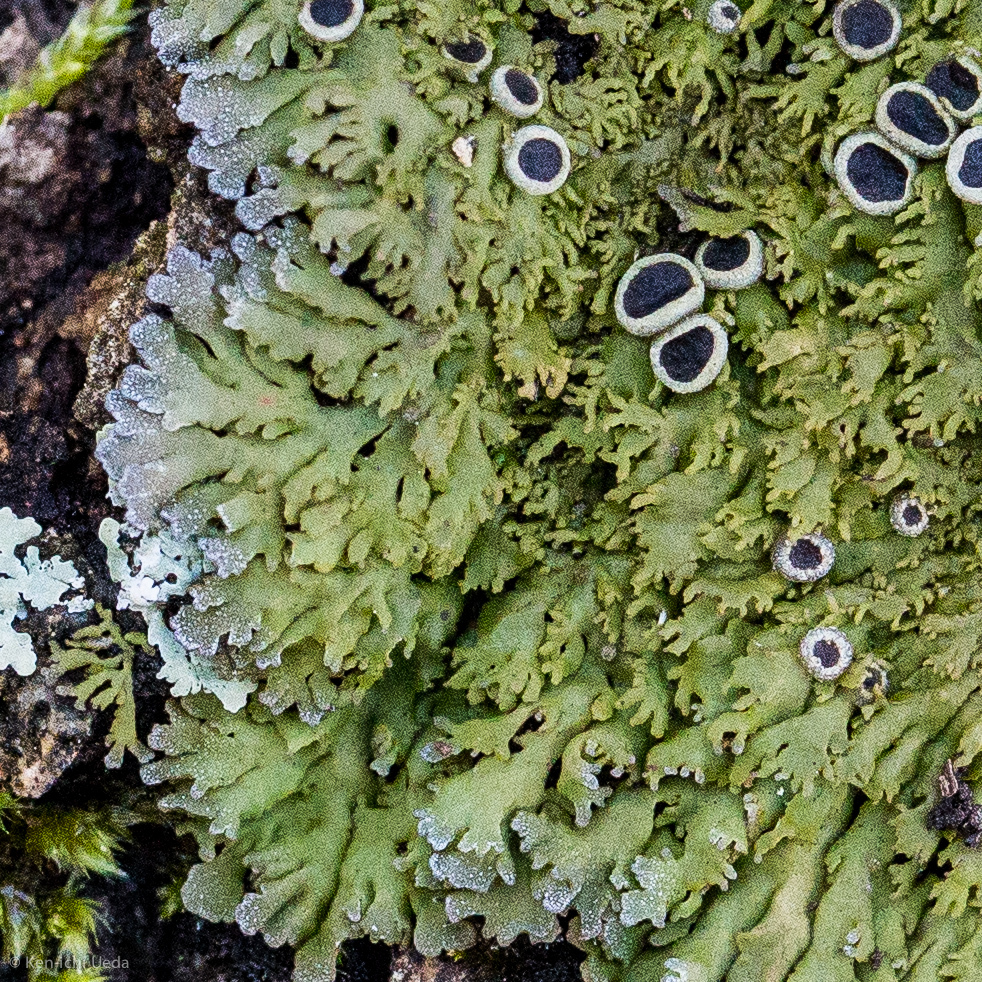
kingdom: Fungi
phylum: Ascomycota
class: Lecanoromycetes
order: Caliciales
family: Physciaceae
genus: Kurokawia
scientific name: Kurokawia palmulata
